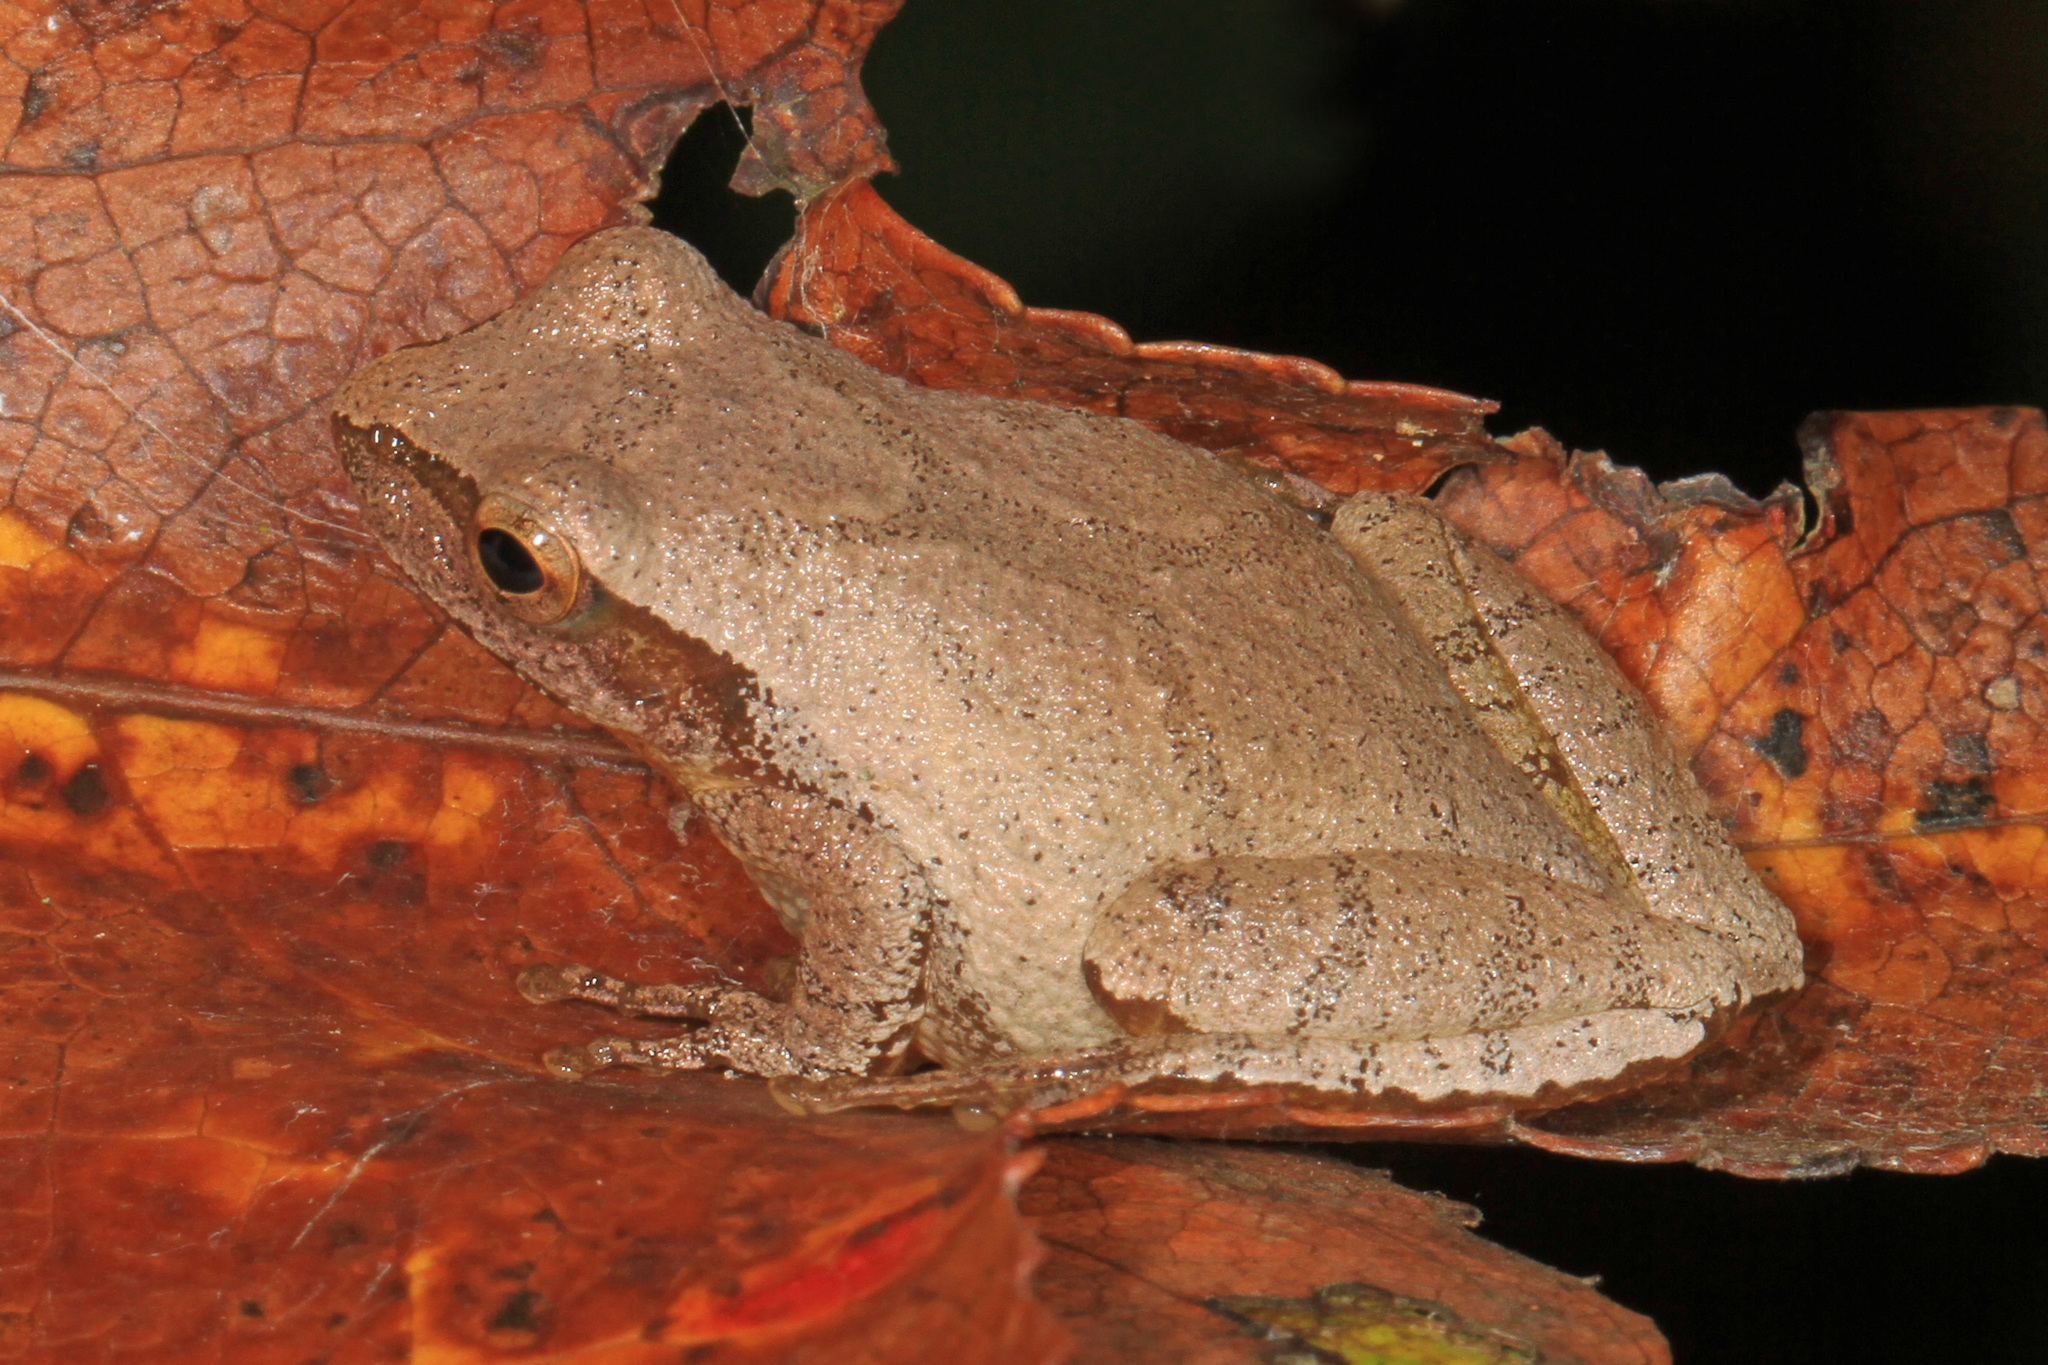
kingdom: Animalia
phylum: Chordata
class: Amphibia
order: Anura
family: Hylidae
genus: Pseudacris
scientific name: Pseudacris crucifer
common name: Spring peeper
